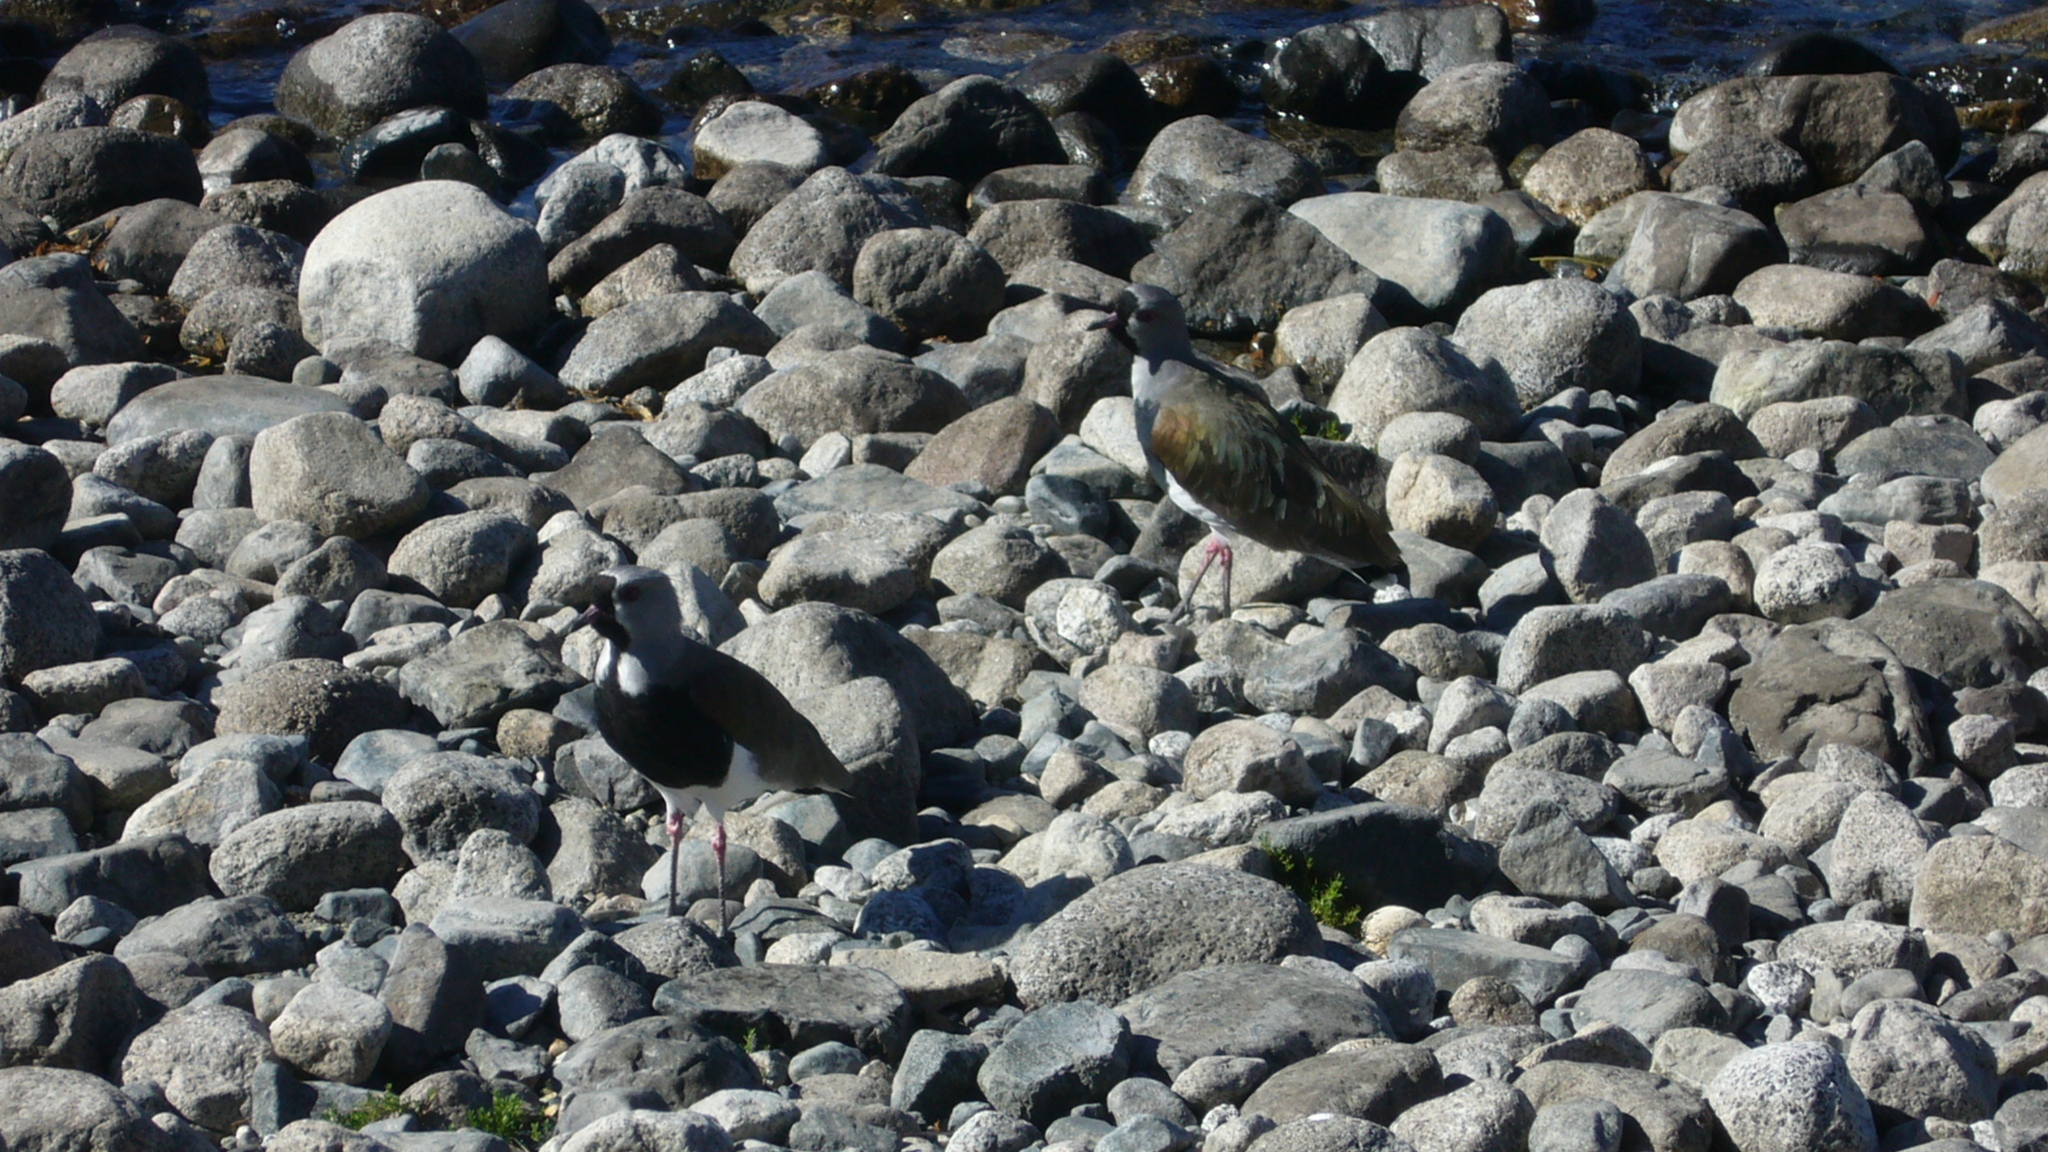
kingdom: Animalia
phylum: Chordata
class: Aves
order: Charadriiformes
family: Charadriidae
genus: Vanellus
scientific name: Vanellus chilensis
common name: Southern lapwing
